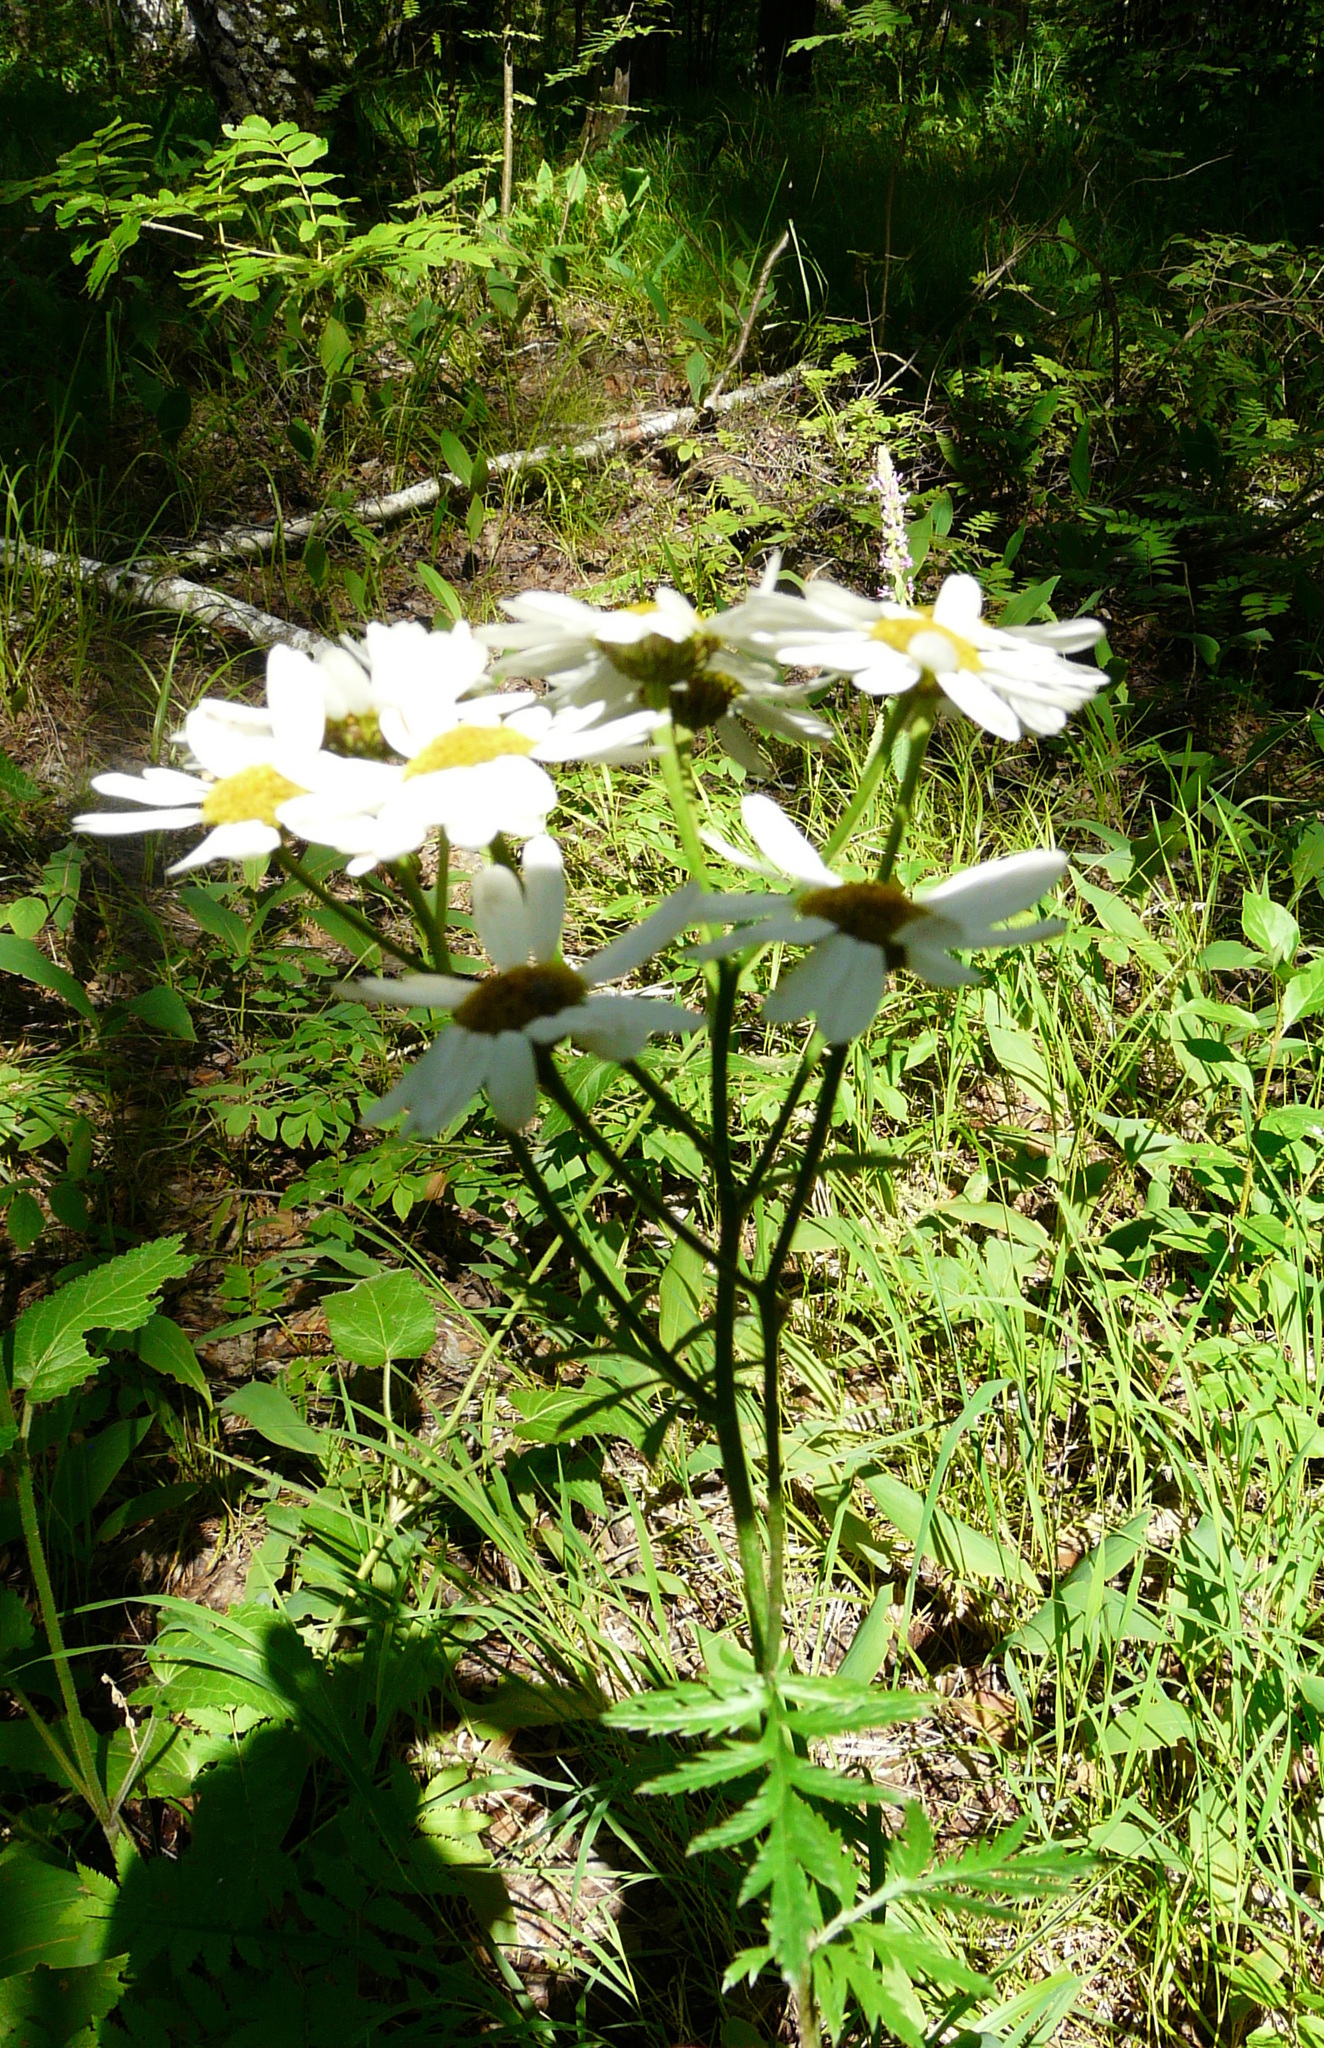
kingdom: Plantae
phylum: Tracheophyta
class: Magnoliopsida
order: Asterales
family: Asteraceae
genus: Tanacetum
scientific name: Tanacetum corymbosum
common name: Scentless feverfew
